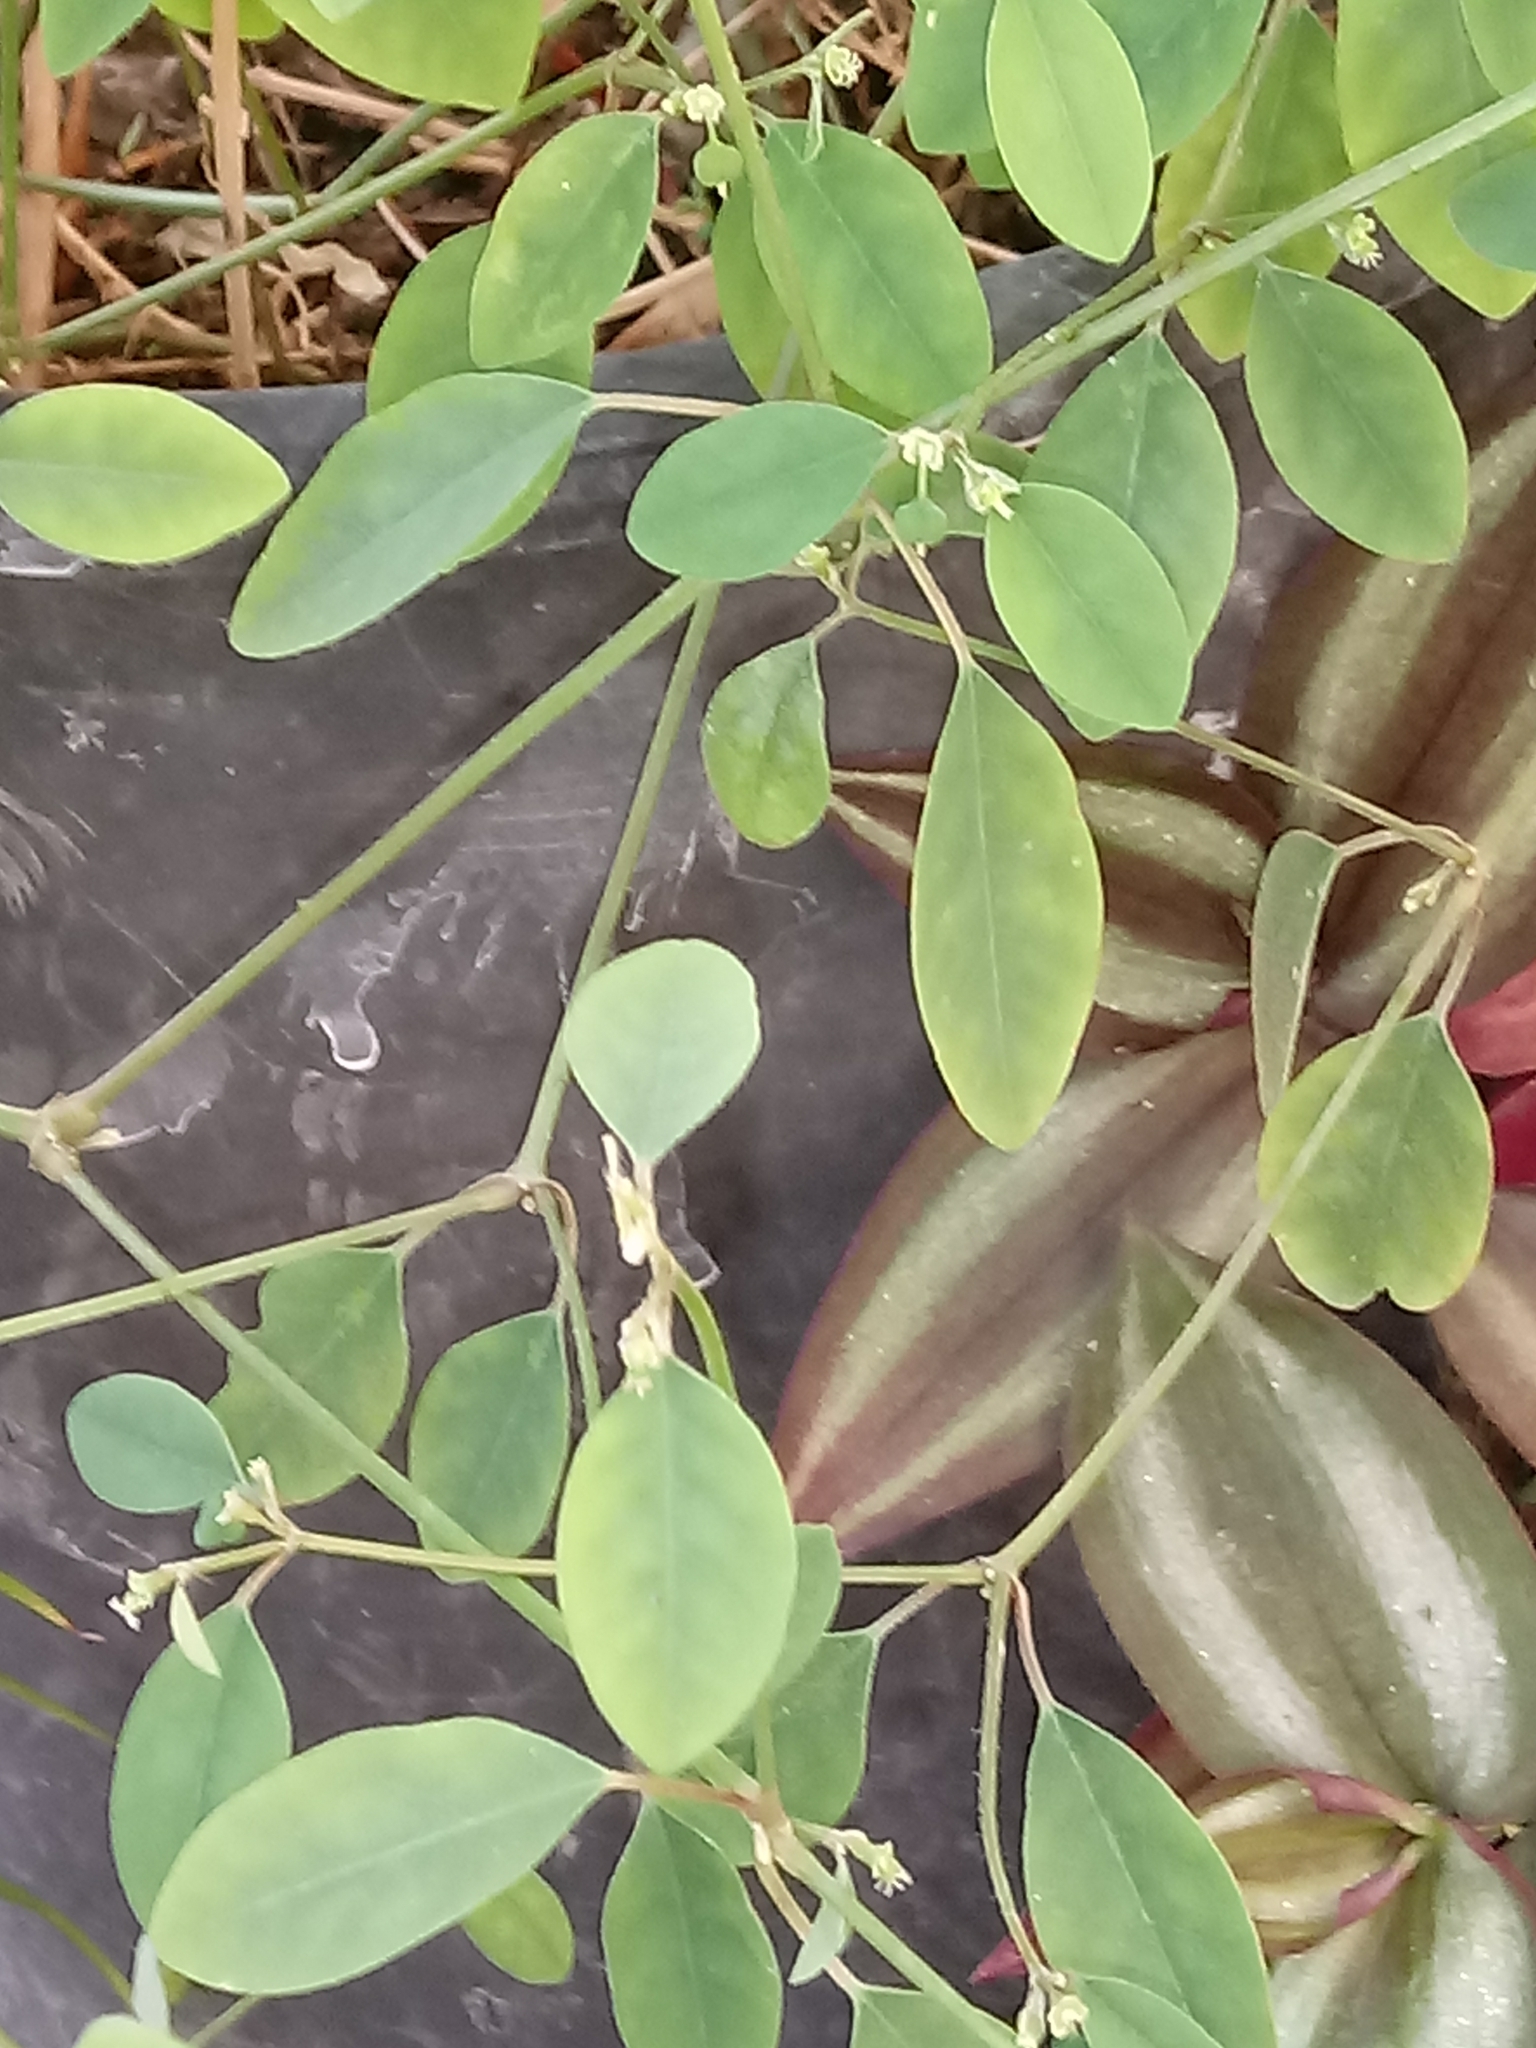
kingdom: Plantae
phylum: Tracheophyta
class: Magnoliopsida
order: Malpighiales
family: Euphorbiaceae
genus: Euphorbia
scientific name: Euphorbia graminea
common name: Grassleaf spurge
